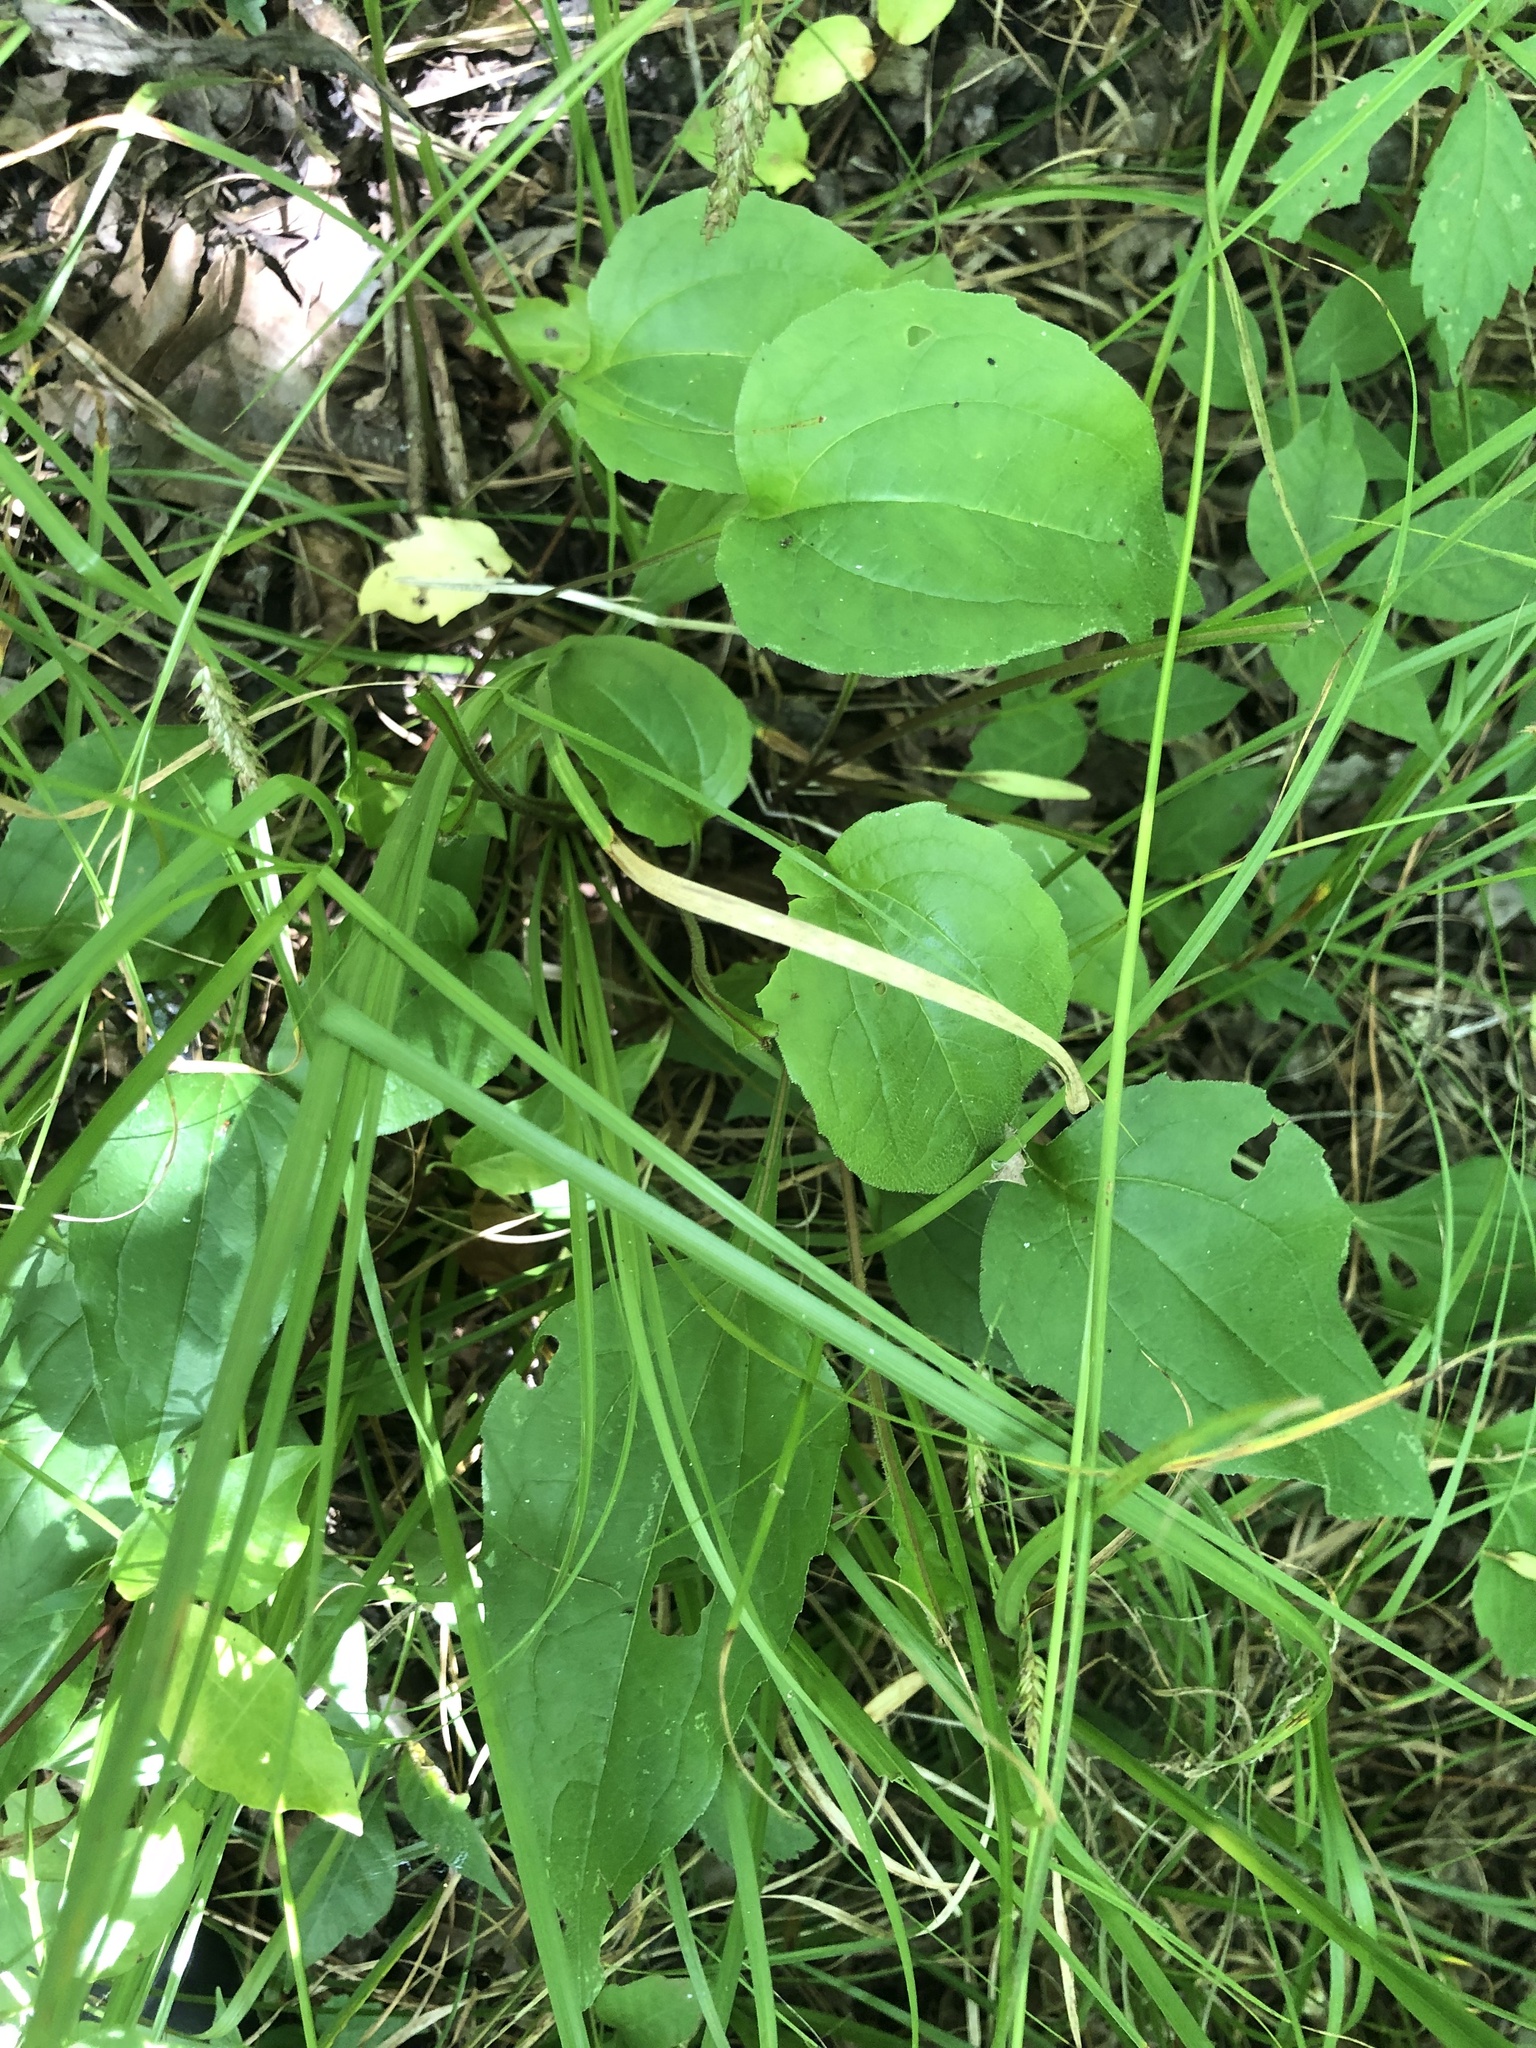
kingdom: Plantae
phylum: Tracheophyta
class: Magnoliopsida
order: Asterales
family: Asteraceae
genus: Echinacea
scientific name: Echinacea purpurea
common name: Broad-leaved purple coneflower
